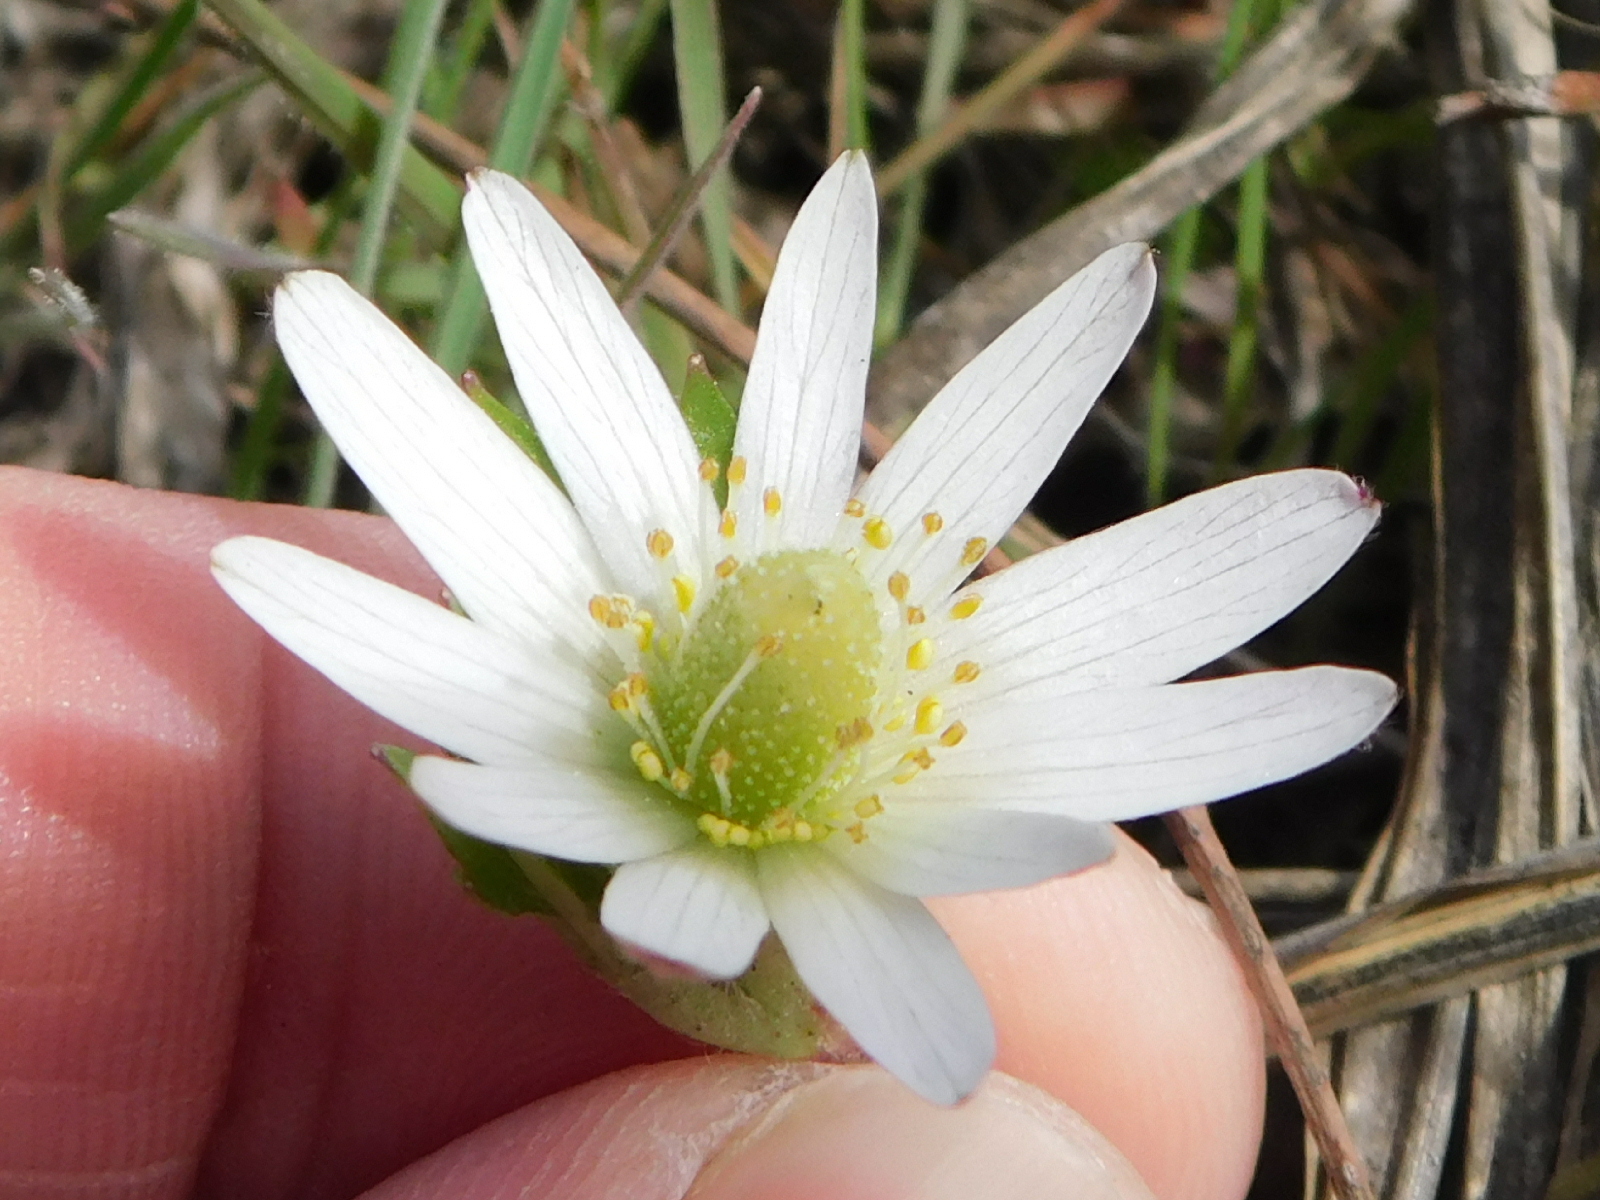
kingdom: Plantae
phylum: Tracheophyta
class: Magnoliopsida
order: Ranunculales
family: Ranunculaceae
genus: Anemone
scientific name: Anemone berlandieri
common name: Ten-petal anemone
